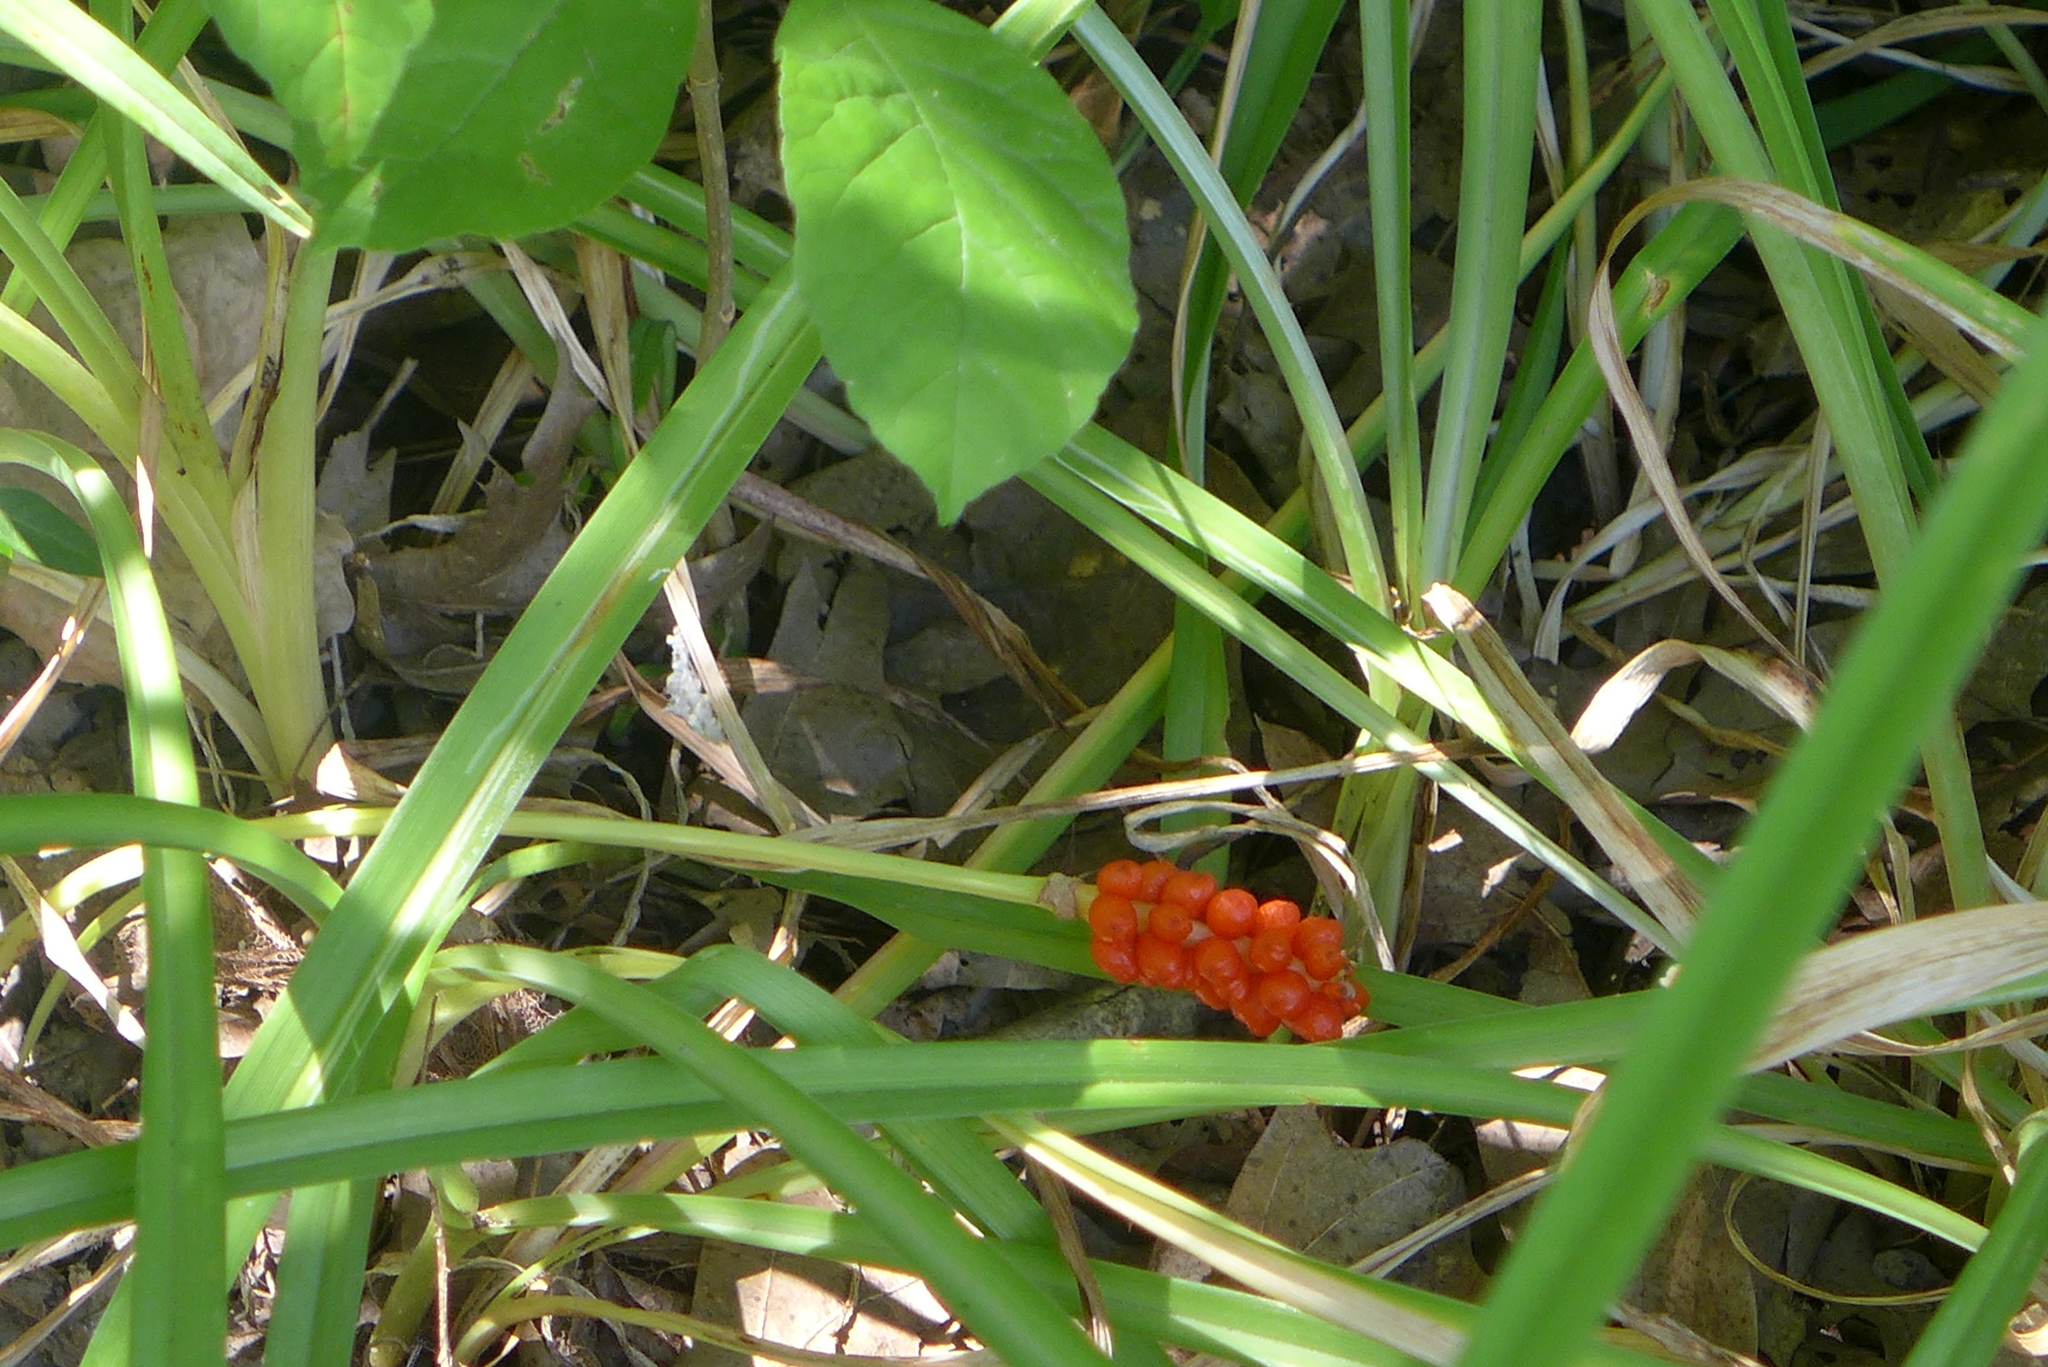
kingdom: Plantae
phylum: Tracheophyta
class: Liliopsida
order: Alismatales
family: Araceae
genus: Arisaema
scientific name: Arisaema triphyllum
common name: Jack-in-the-pulpit
